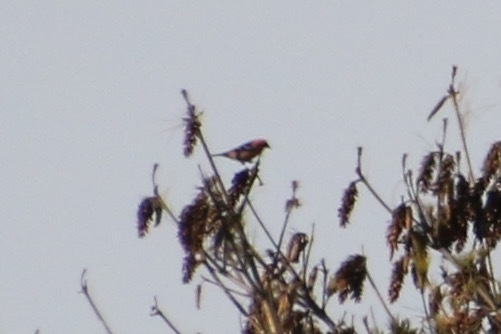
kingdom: Animalia
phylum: Chordata
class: Aves
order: Passeriformes
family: Fringillidae
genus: Loxia
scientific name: Loxia leucoptera
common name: Two-barred crossbill
